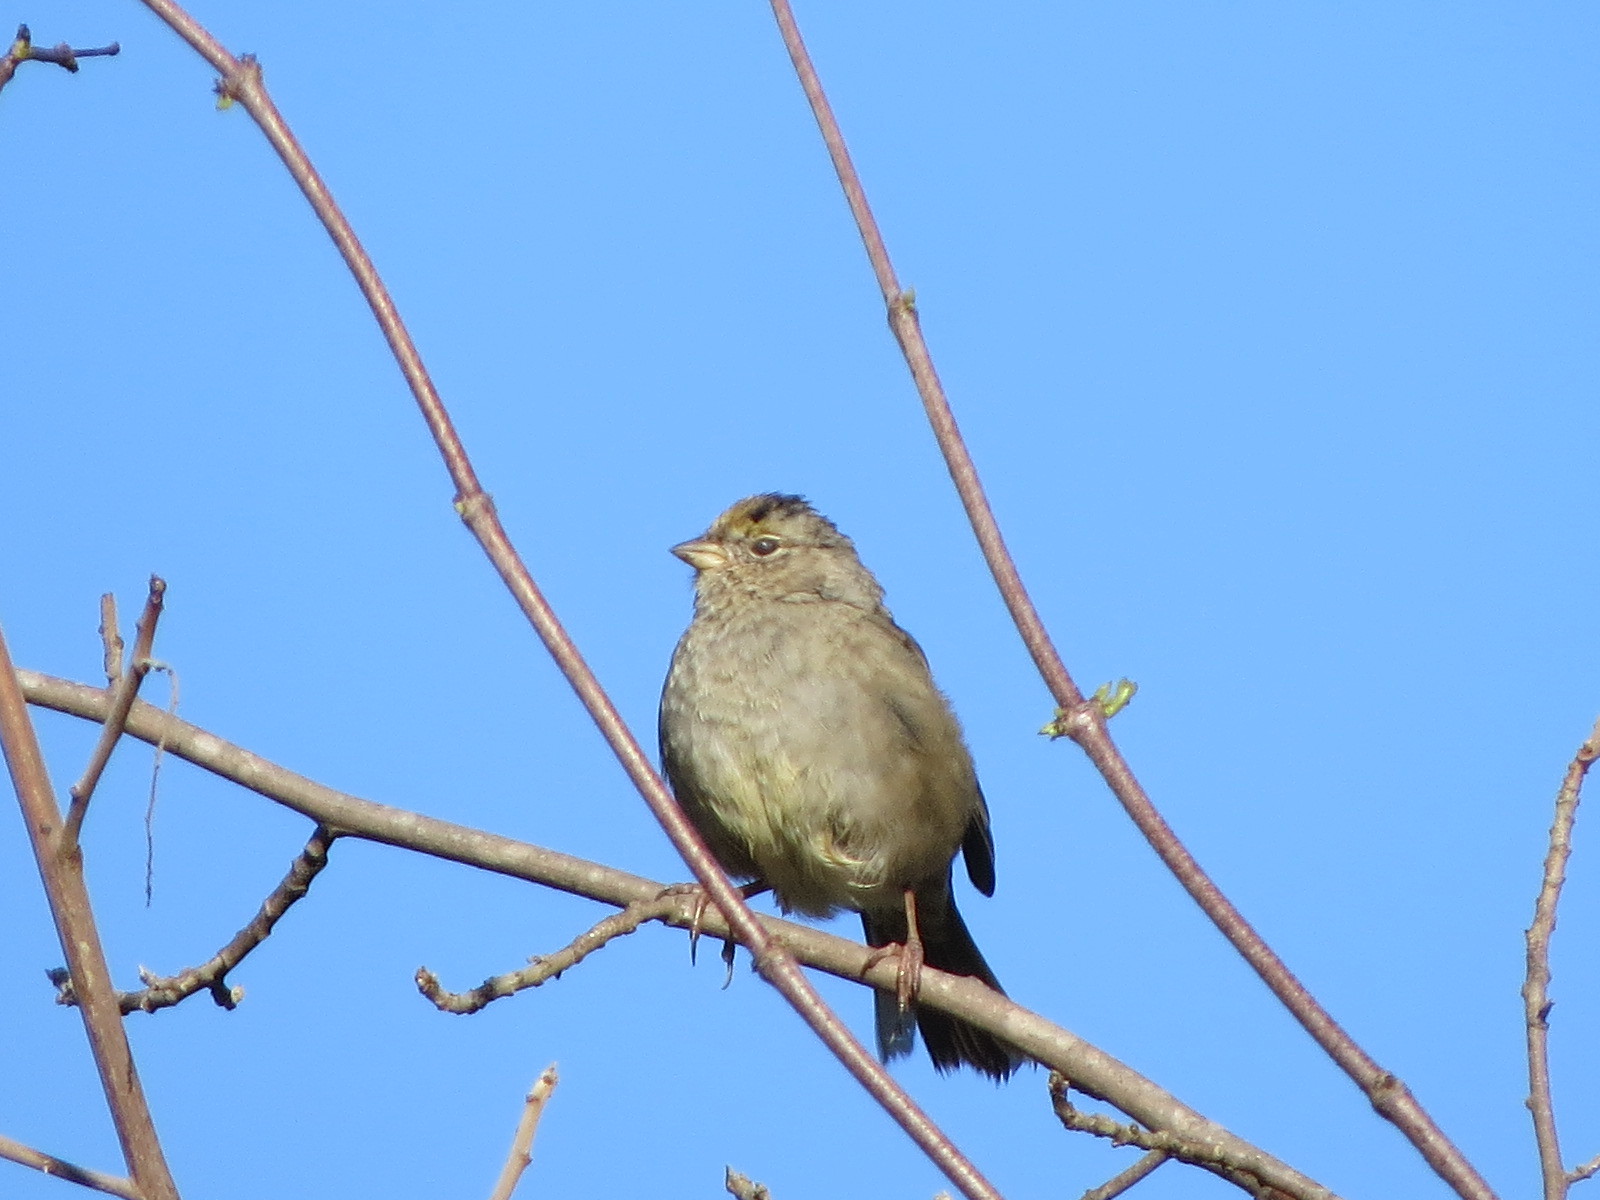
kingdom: Animalia
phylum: Chordata
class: Aves
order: Passeriformes
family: Passerellidae
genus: Zonotrichia
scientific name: Zonotrichia atricapilla
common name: Golden-crowned sparrow
